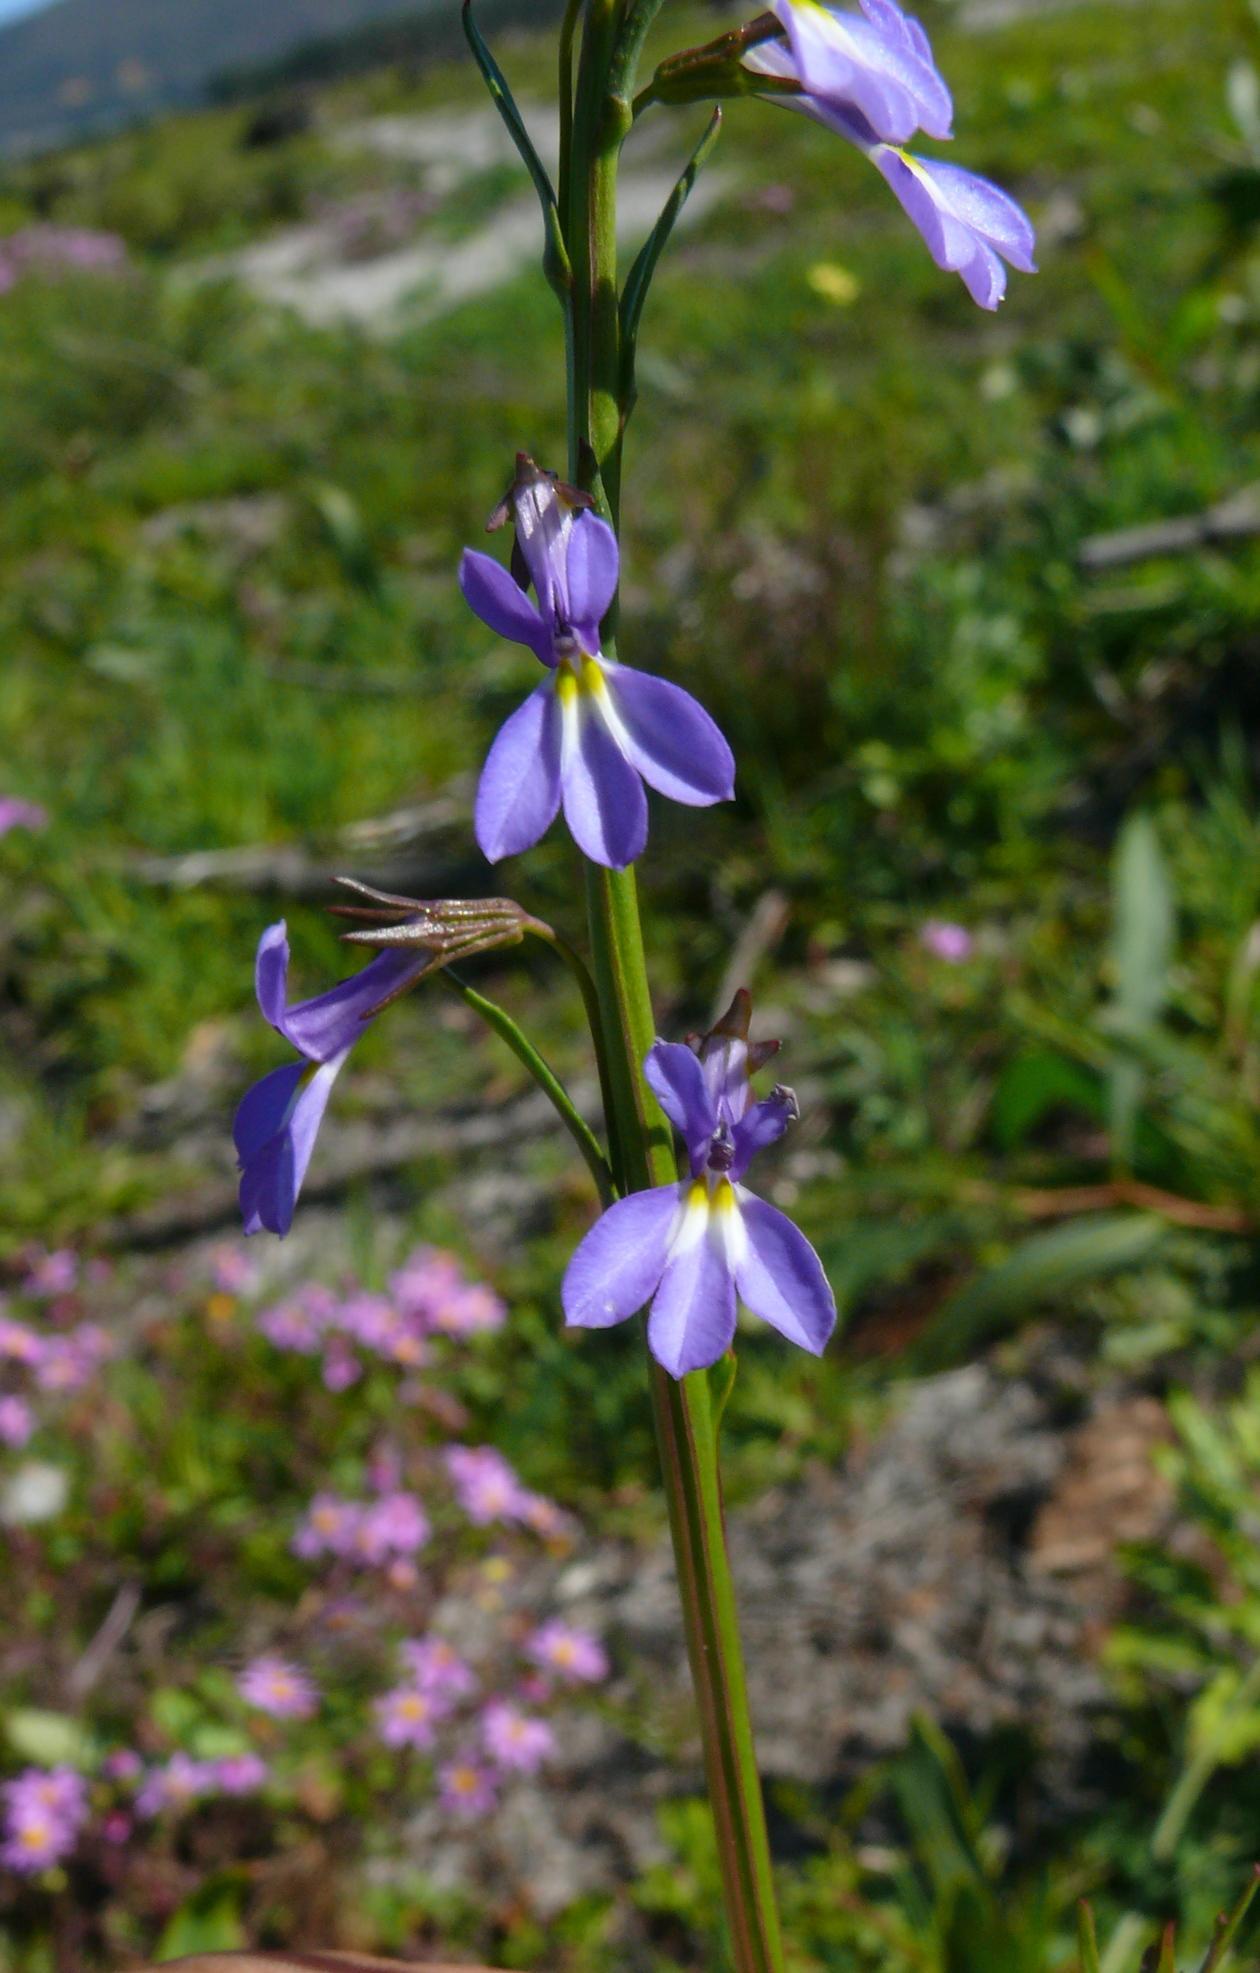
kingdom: Plantae
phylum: Tracheophyta
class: Magnoliopsida
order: Asterales
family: Campanulaceae
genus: Lobelia
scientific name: Lobelia comosa
